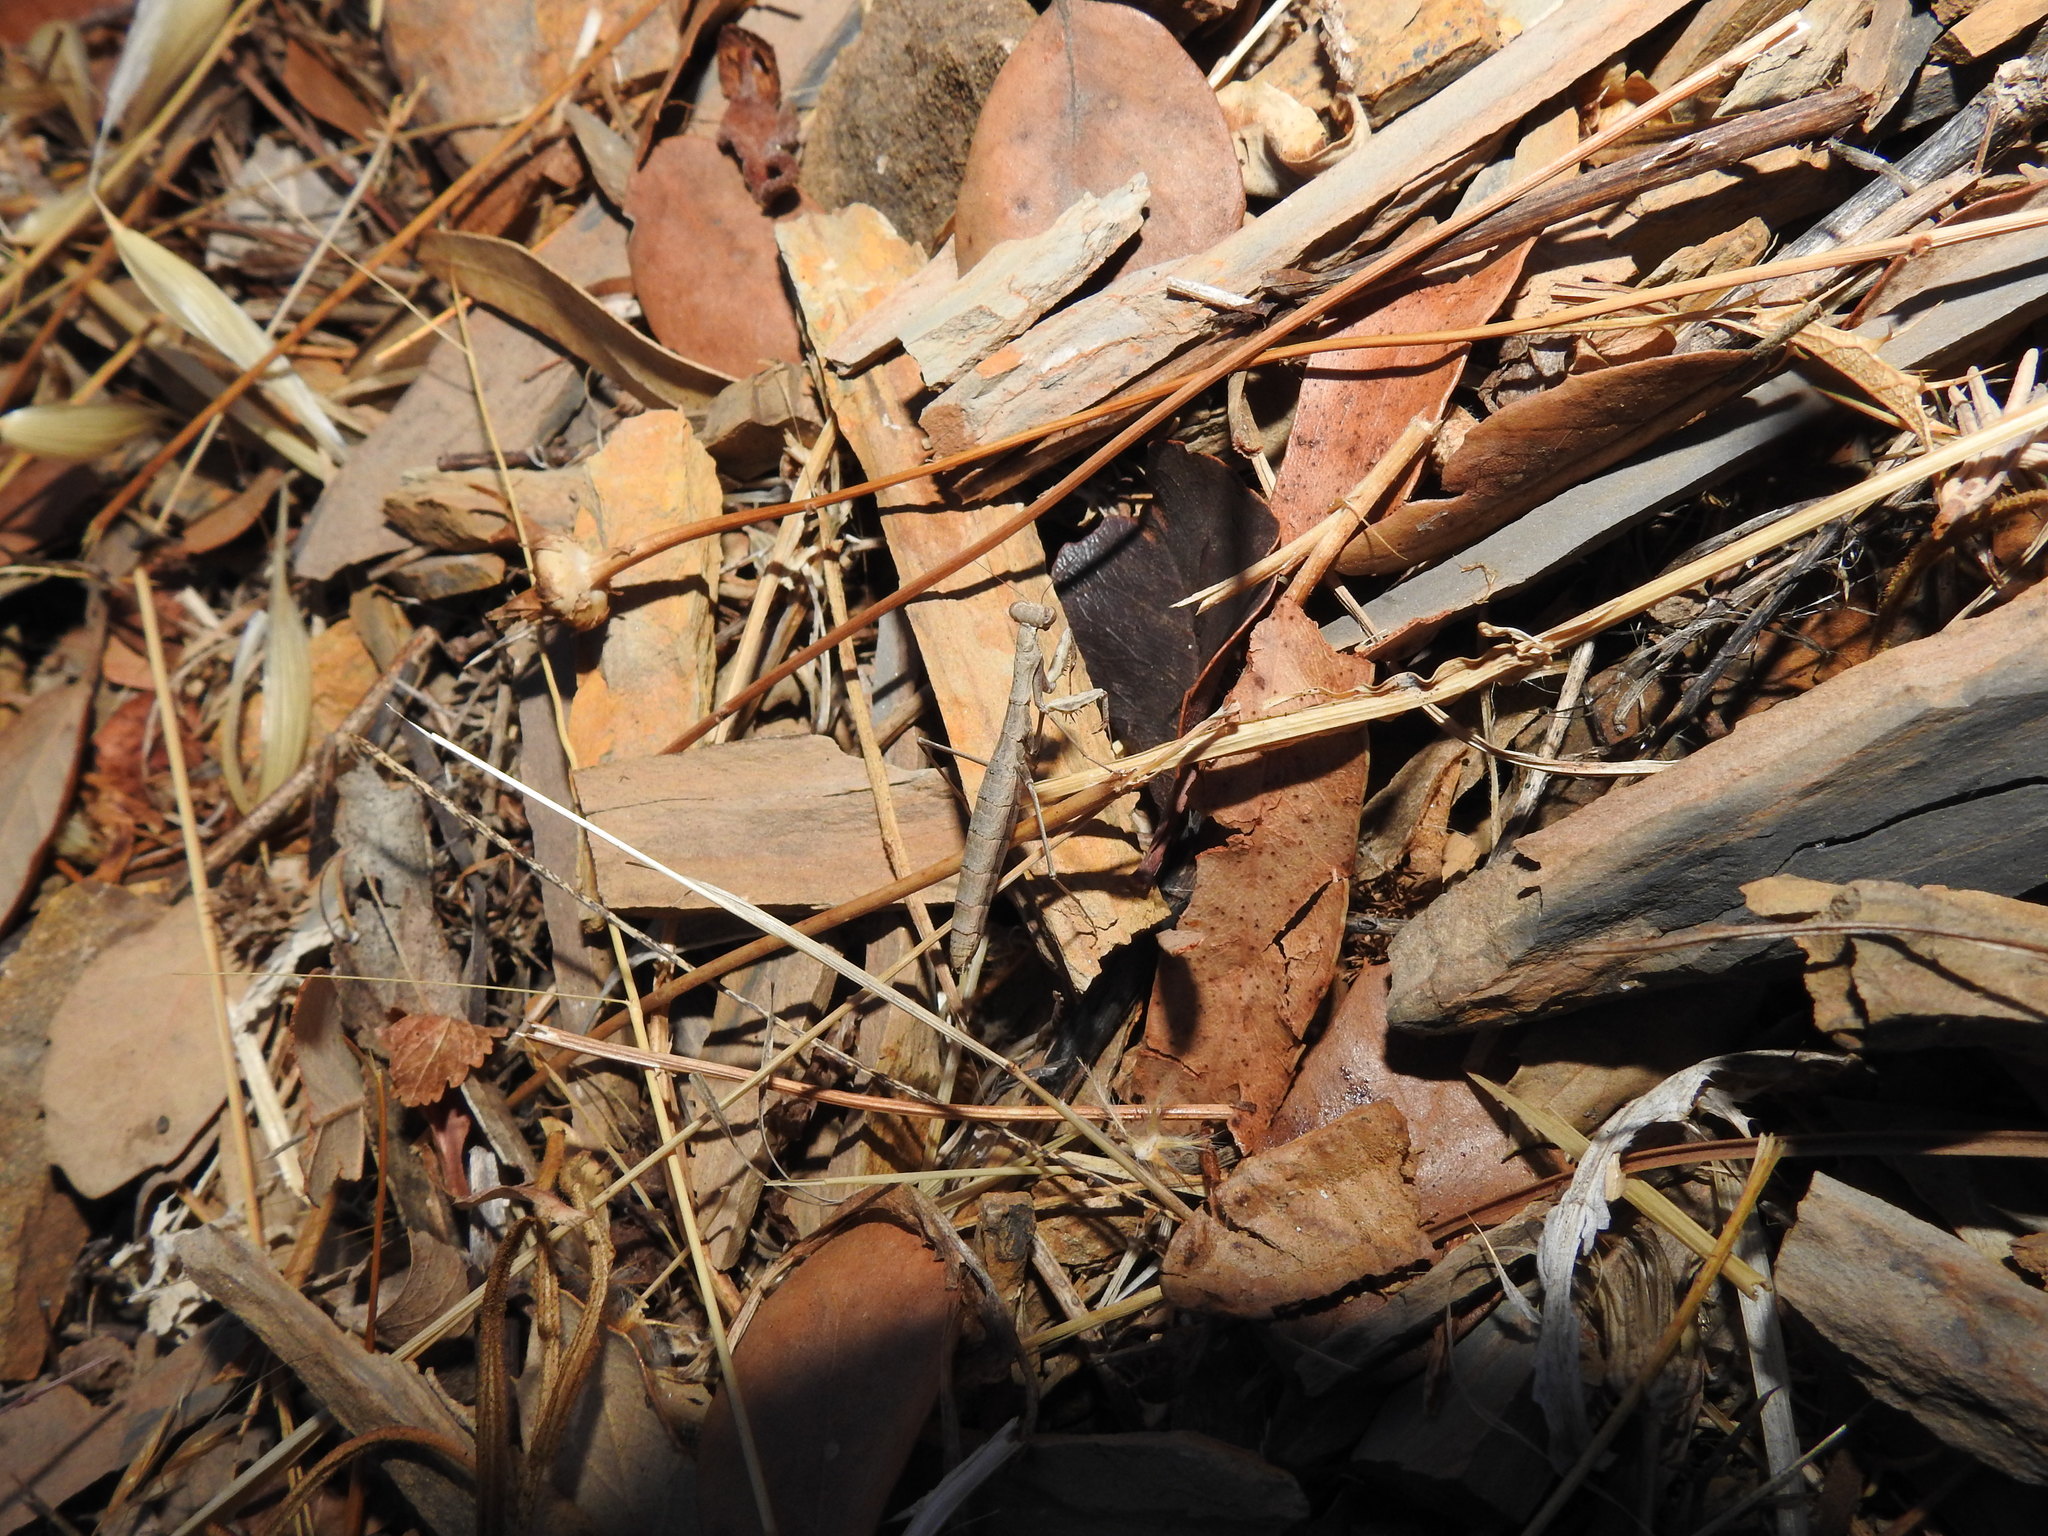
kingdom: Animalia
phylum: Arthropoda
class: Insecta
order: Mantodea
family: Rivetinidae
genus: Geomantis
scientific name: Geomantis larvoides
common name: Wingless ground mantis
